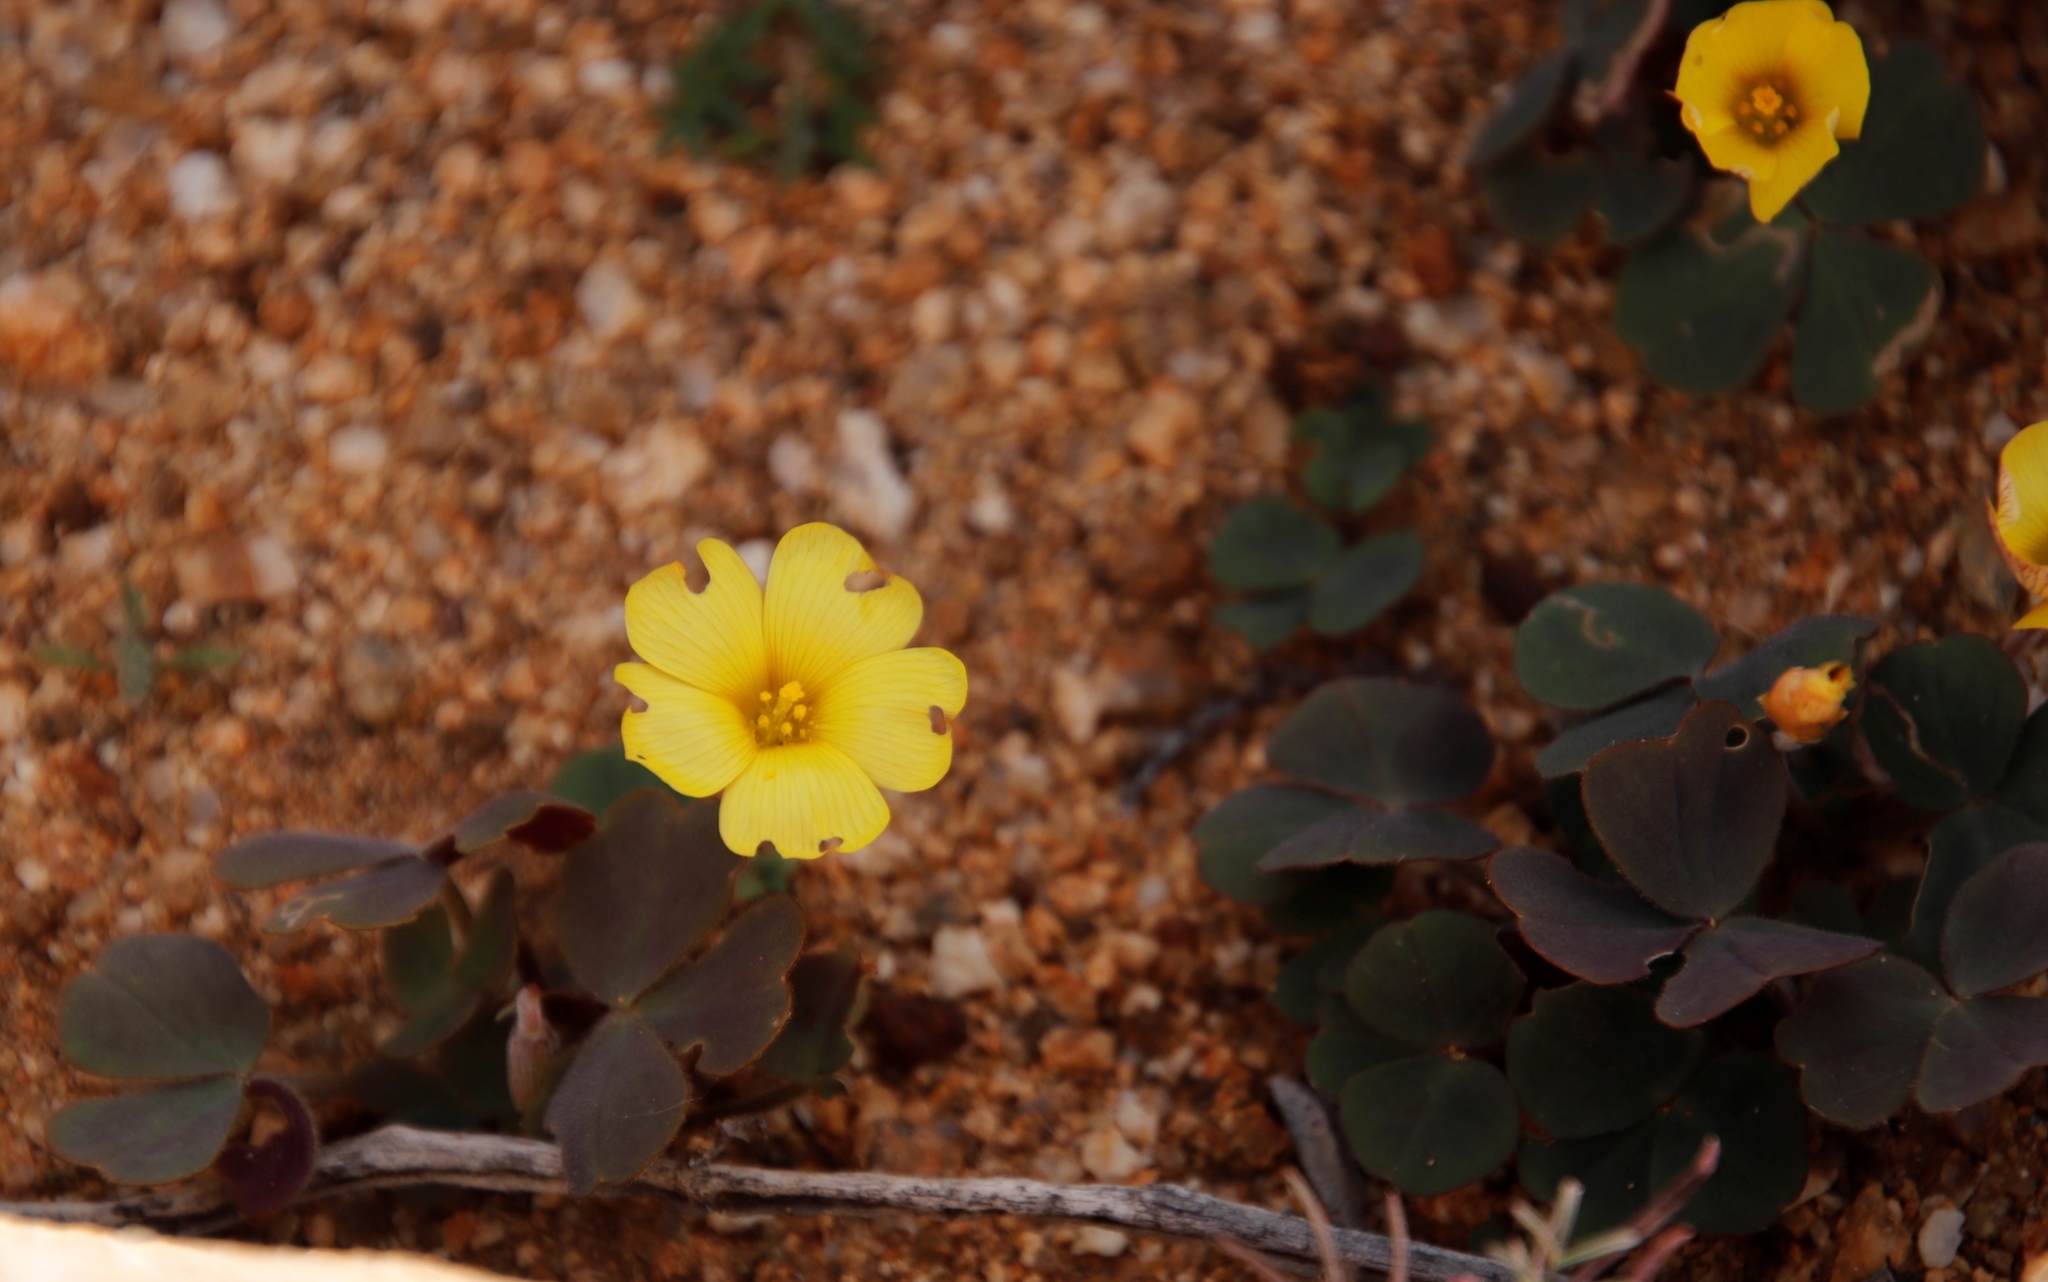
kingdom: Plantae
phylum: Tracheophyta
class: Magnoliopsida
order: Oxalidales
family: Oxalidaceae
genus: Oxalis
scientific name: Oxalis obtusa
